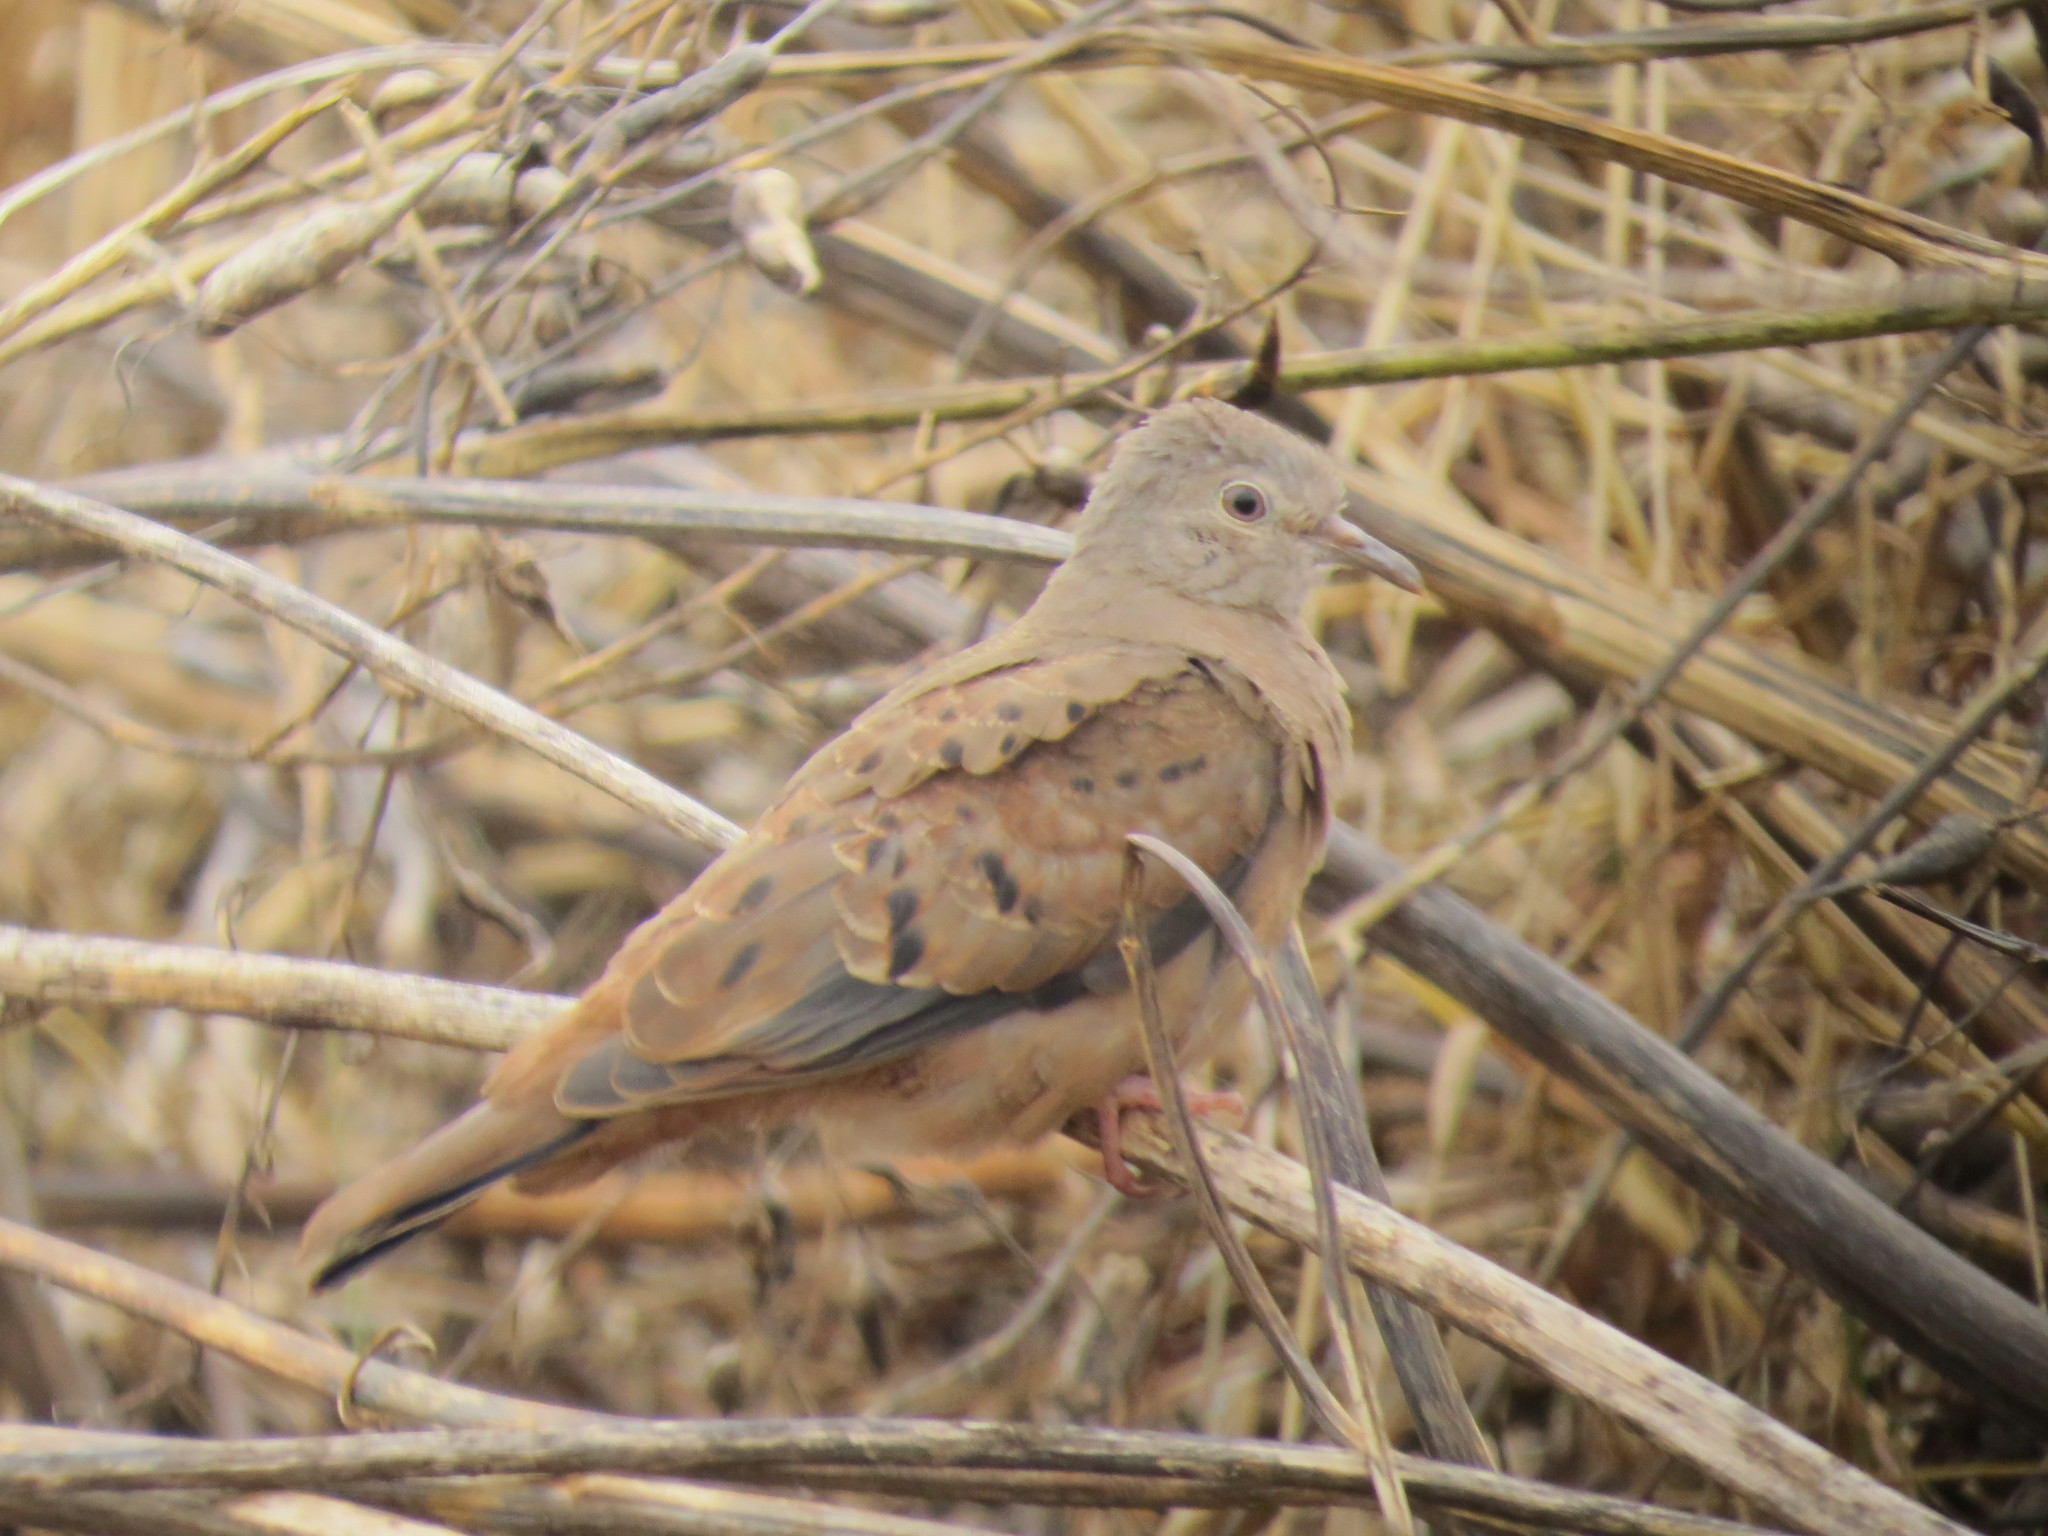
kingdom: Animalia
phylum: Chordata
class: Aves
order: Columbiformes
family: Columbidae
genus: Columbina
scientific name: Columbina talpacoti
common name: Ruddy ground dove
